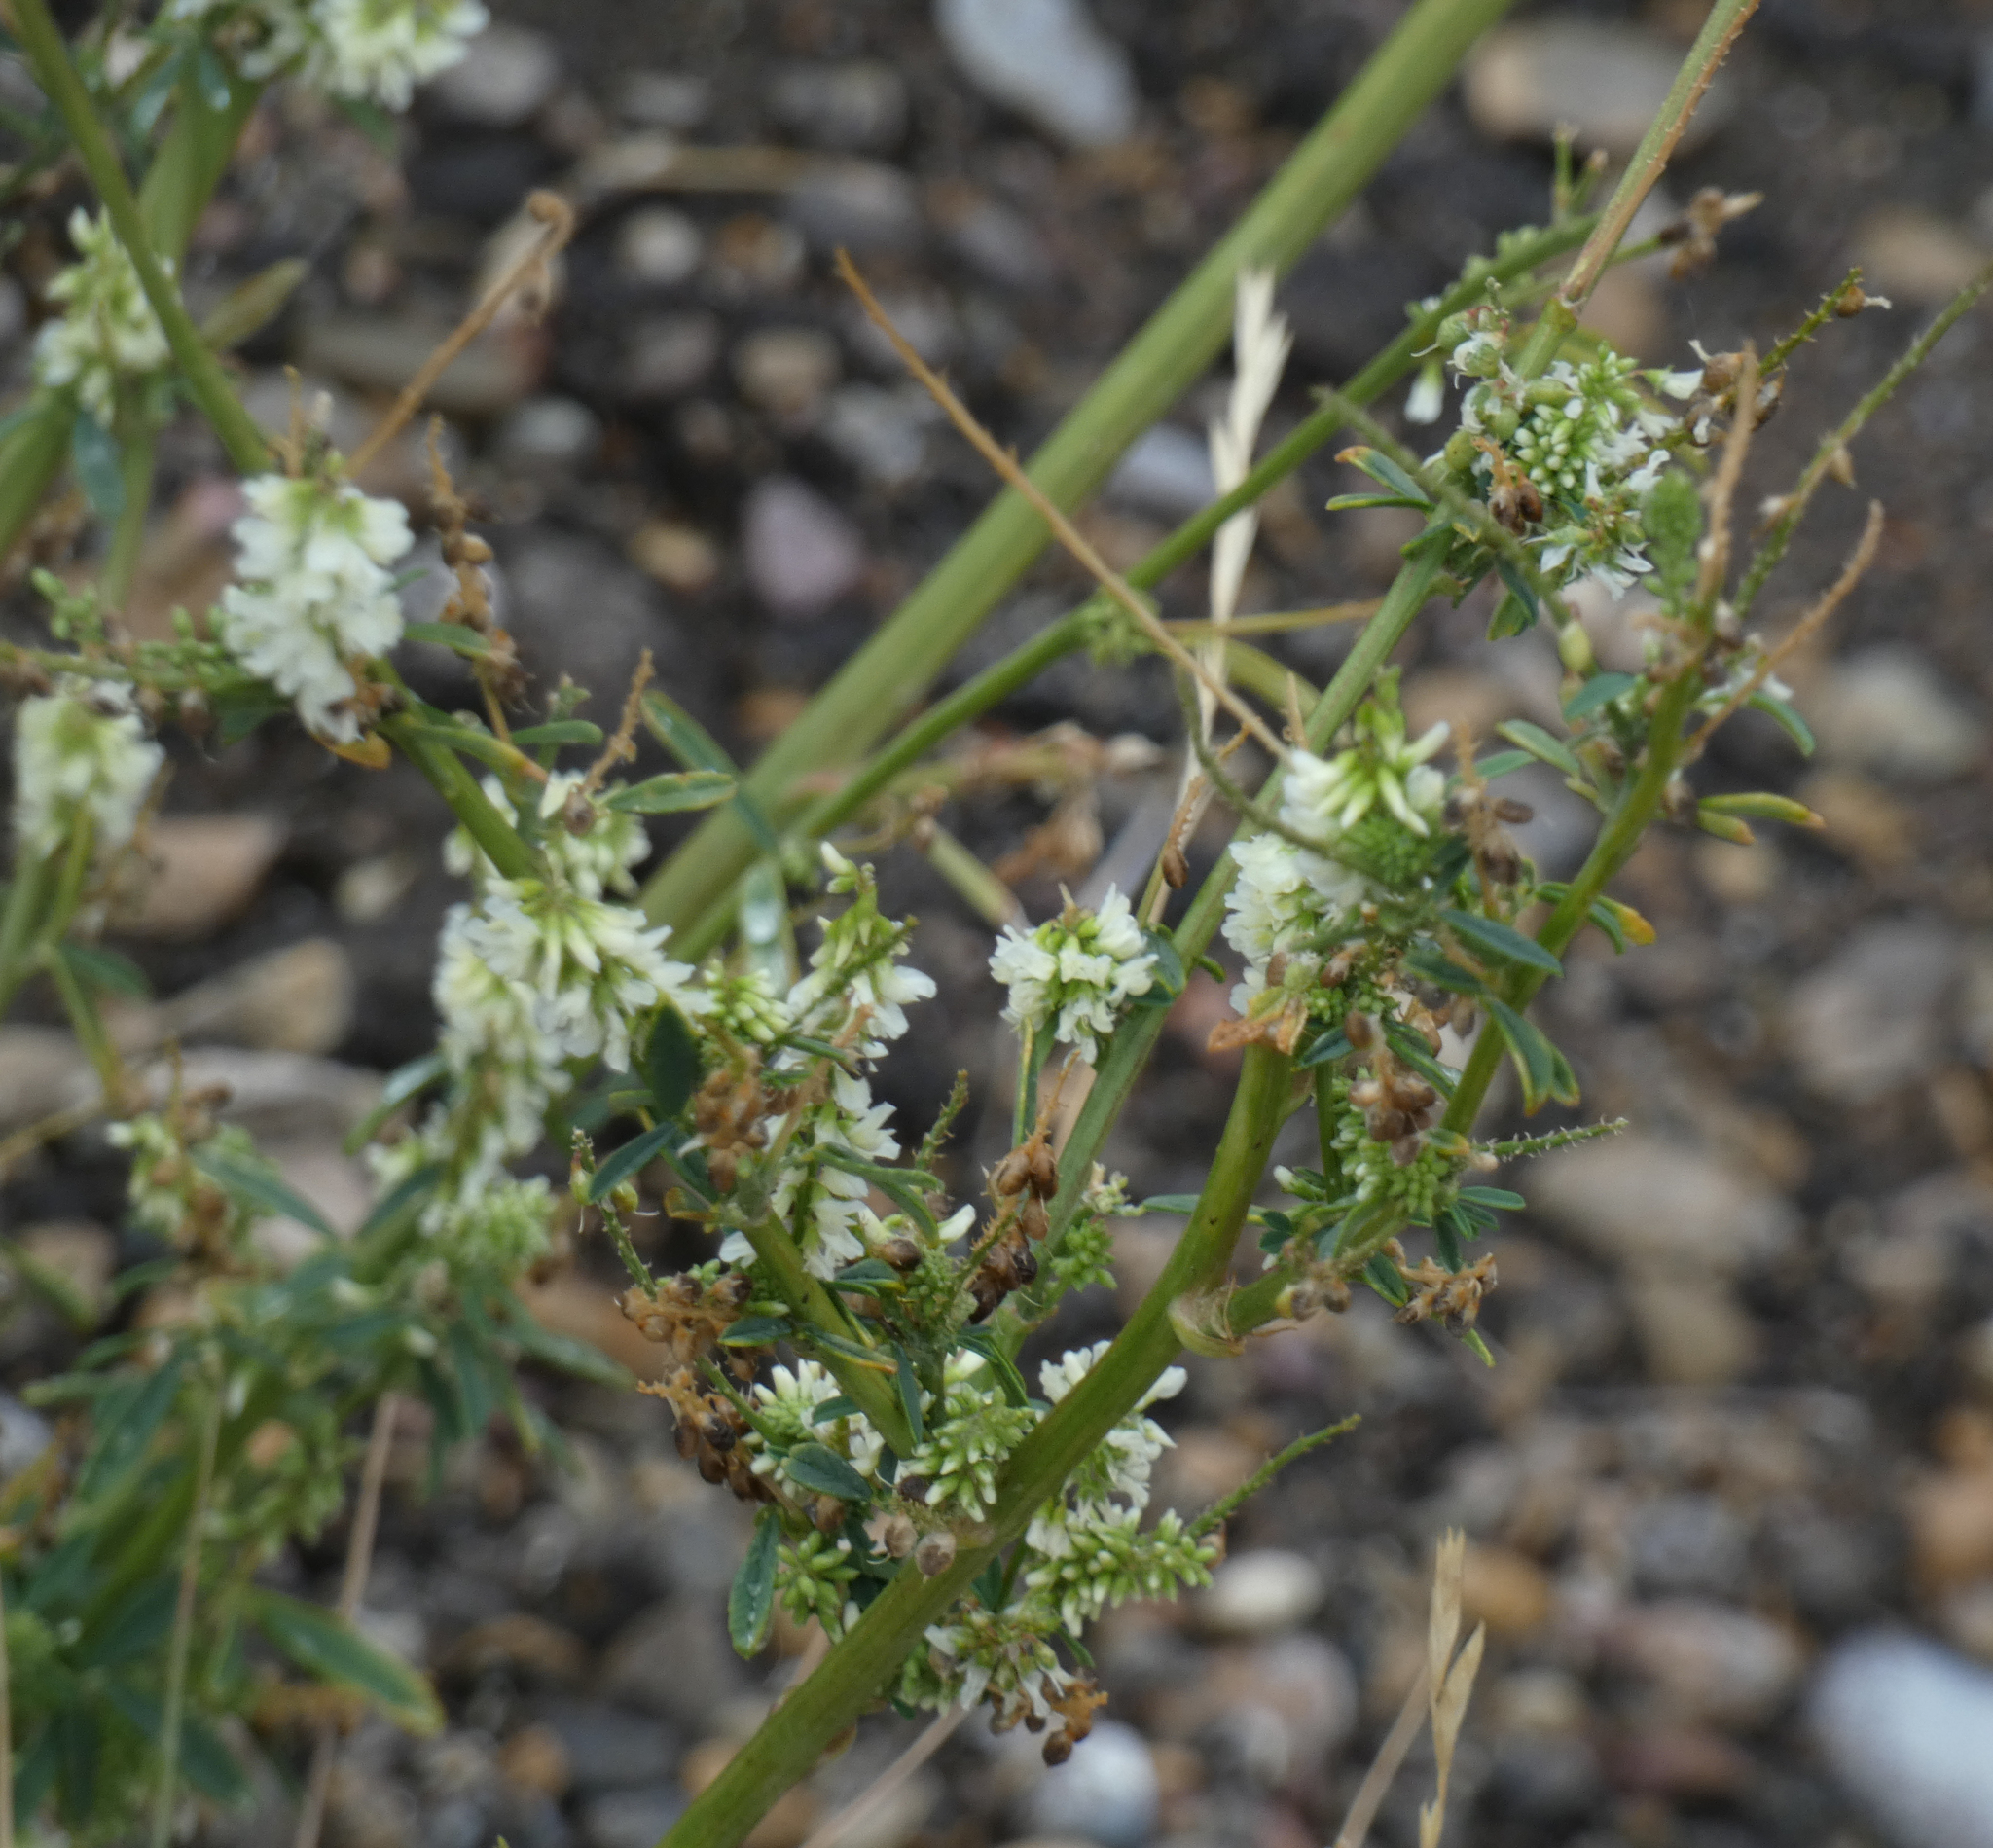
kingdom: Plantae
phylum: Tracheophyta
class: Magnoliopsida
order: Fabales
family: Fabaceae
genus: Melilotus
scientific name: Melilotus albus
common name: White melilot
